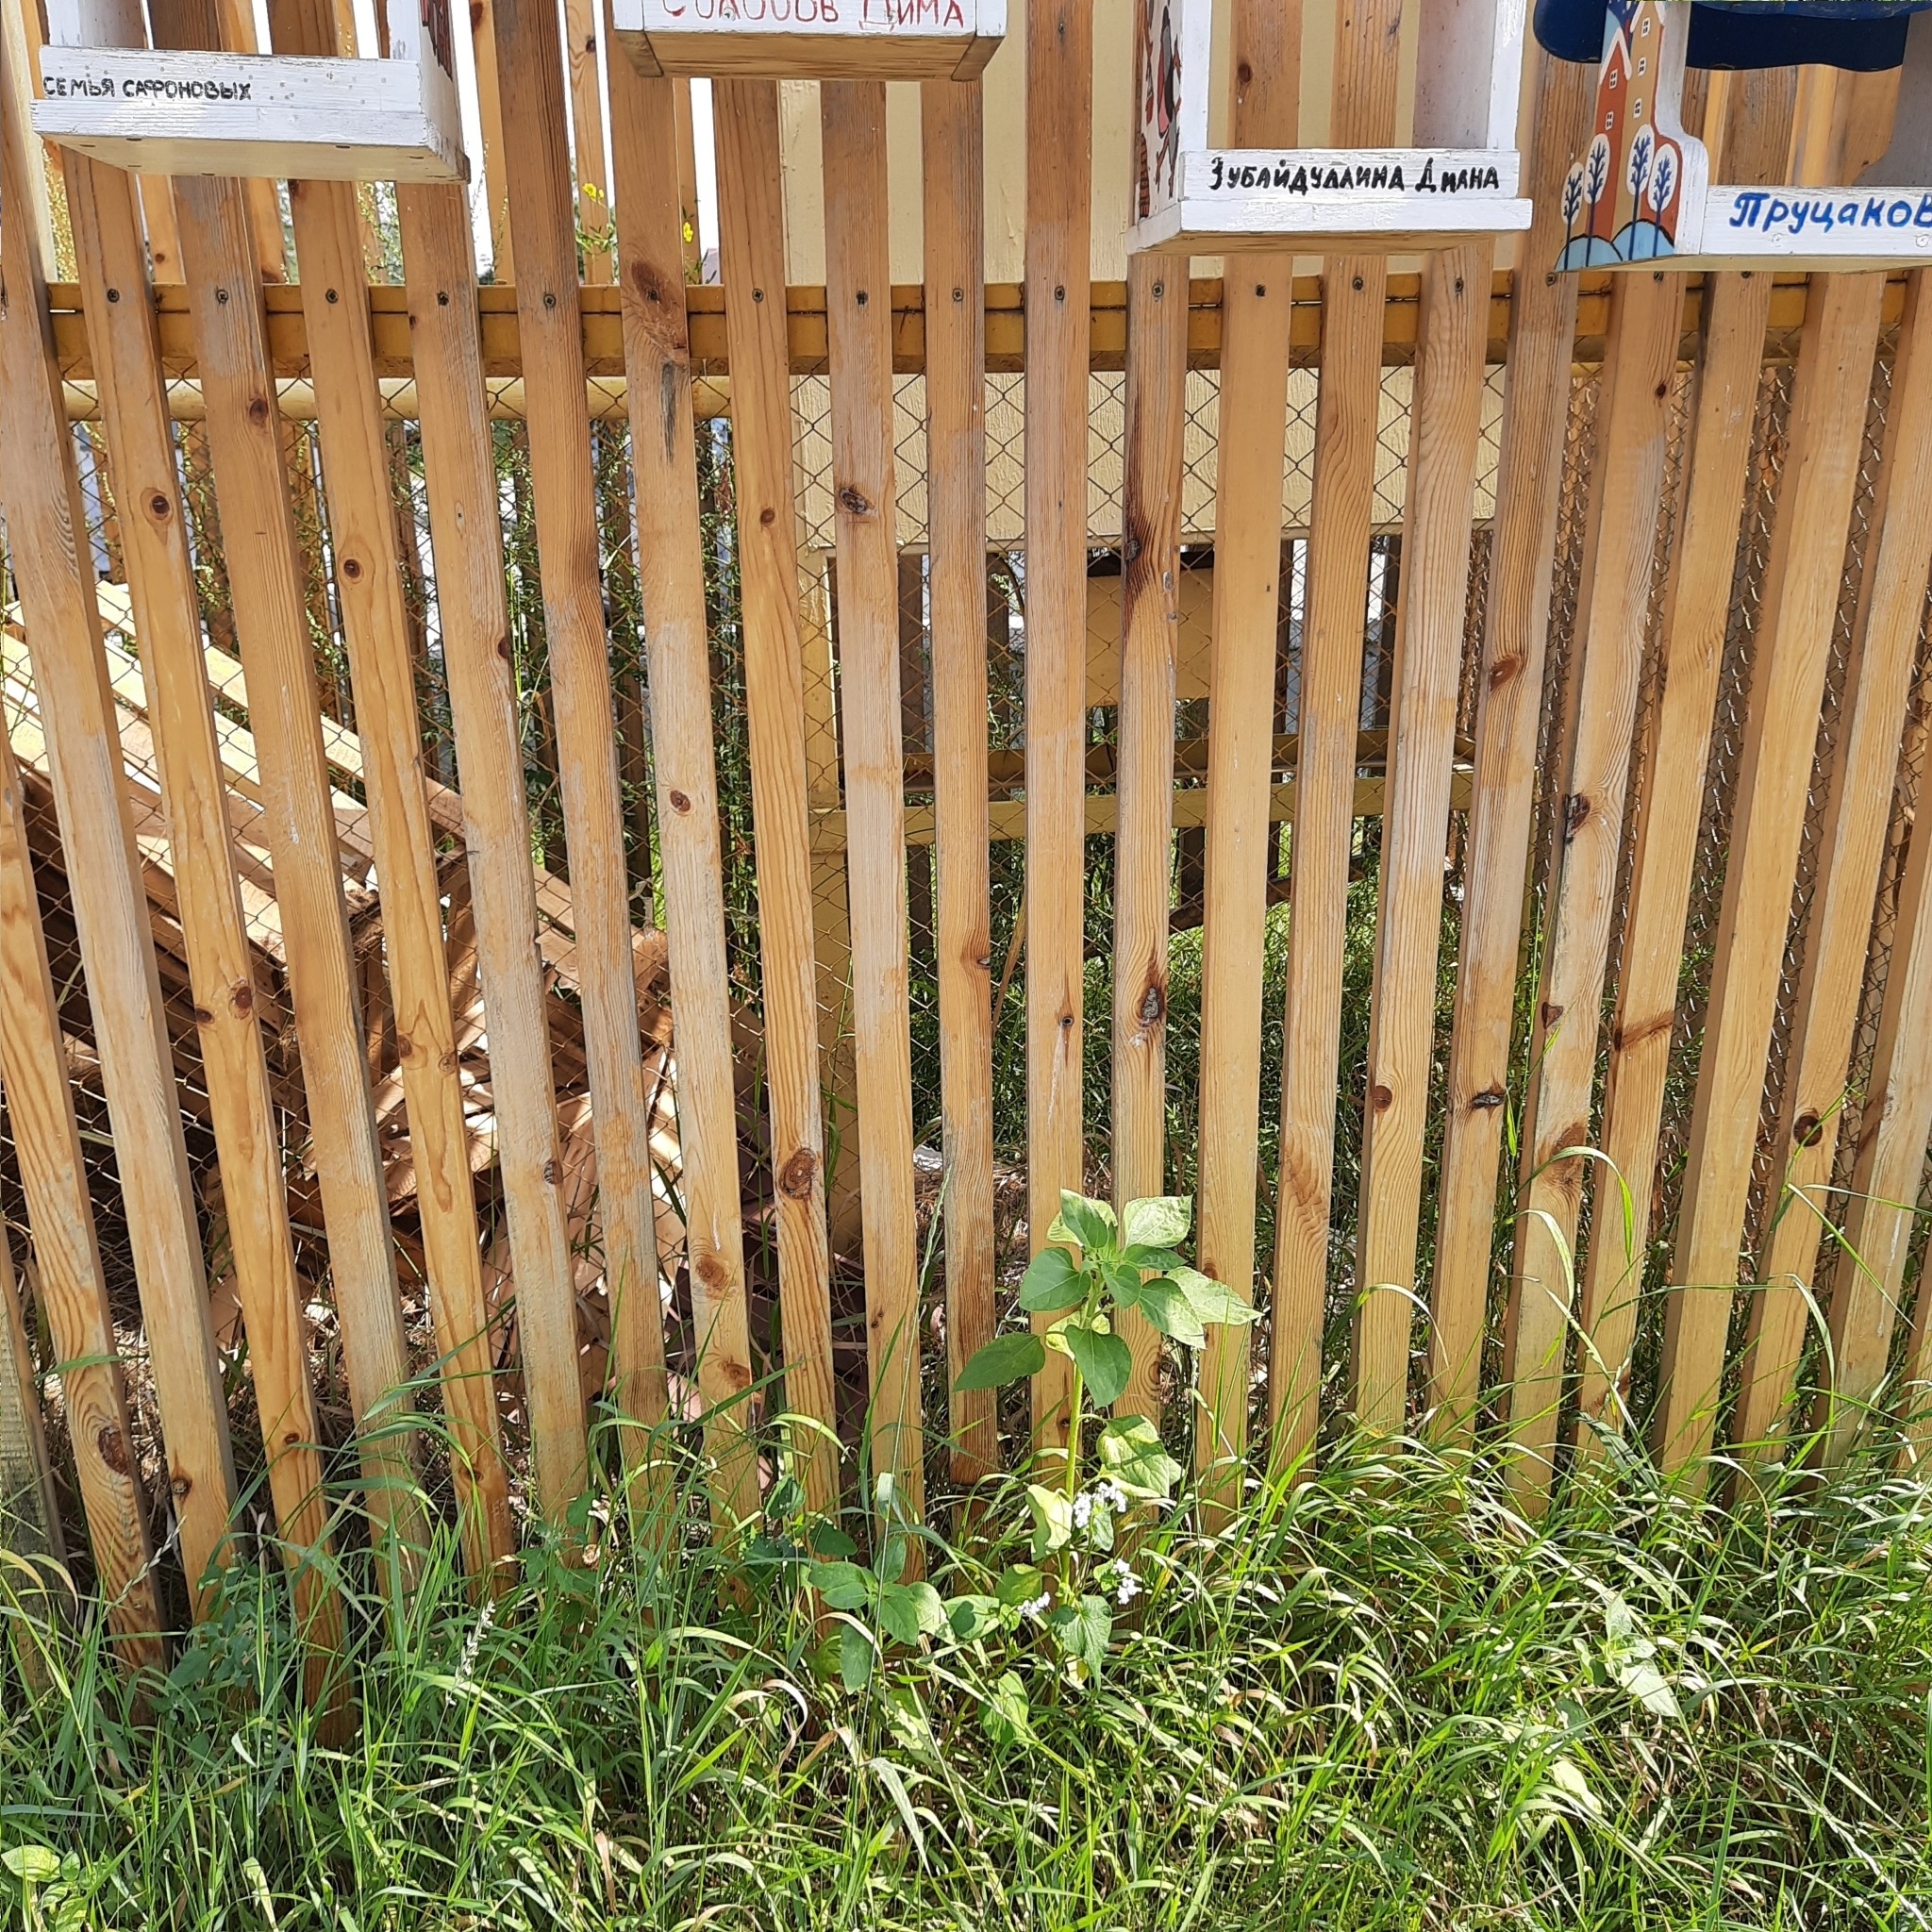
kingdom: Plantae
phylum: Tracheophyta
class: Magnoliopsida
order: Asterales
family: Asteraceae
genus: Helianthus
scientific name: Helianthus annuus
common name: Sunflower
